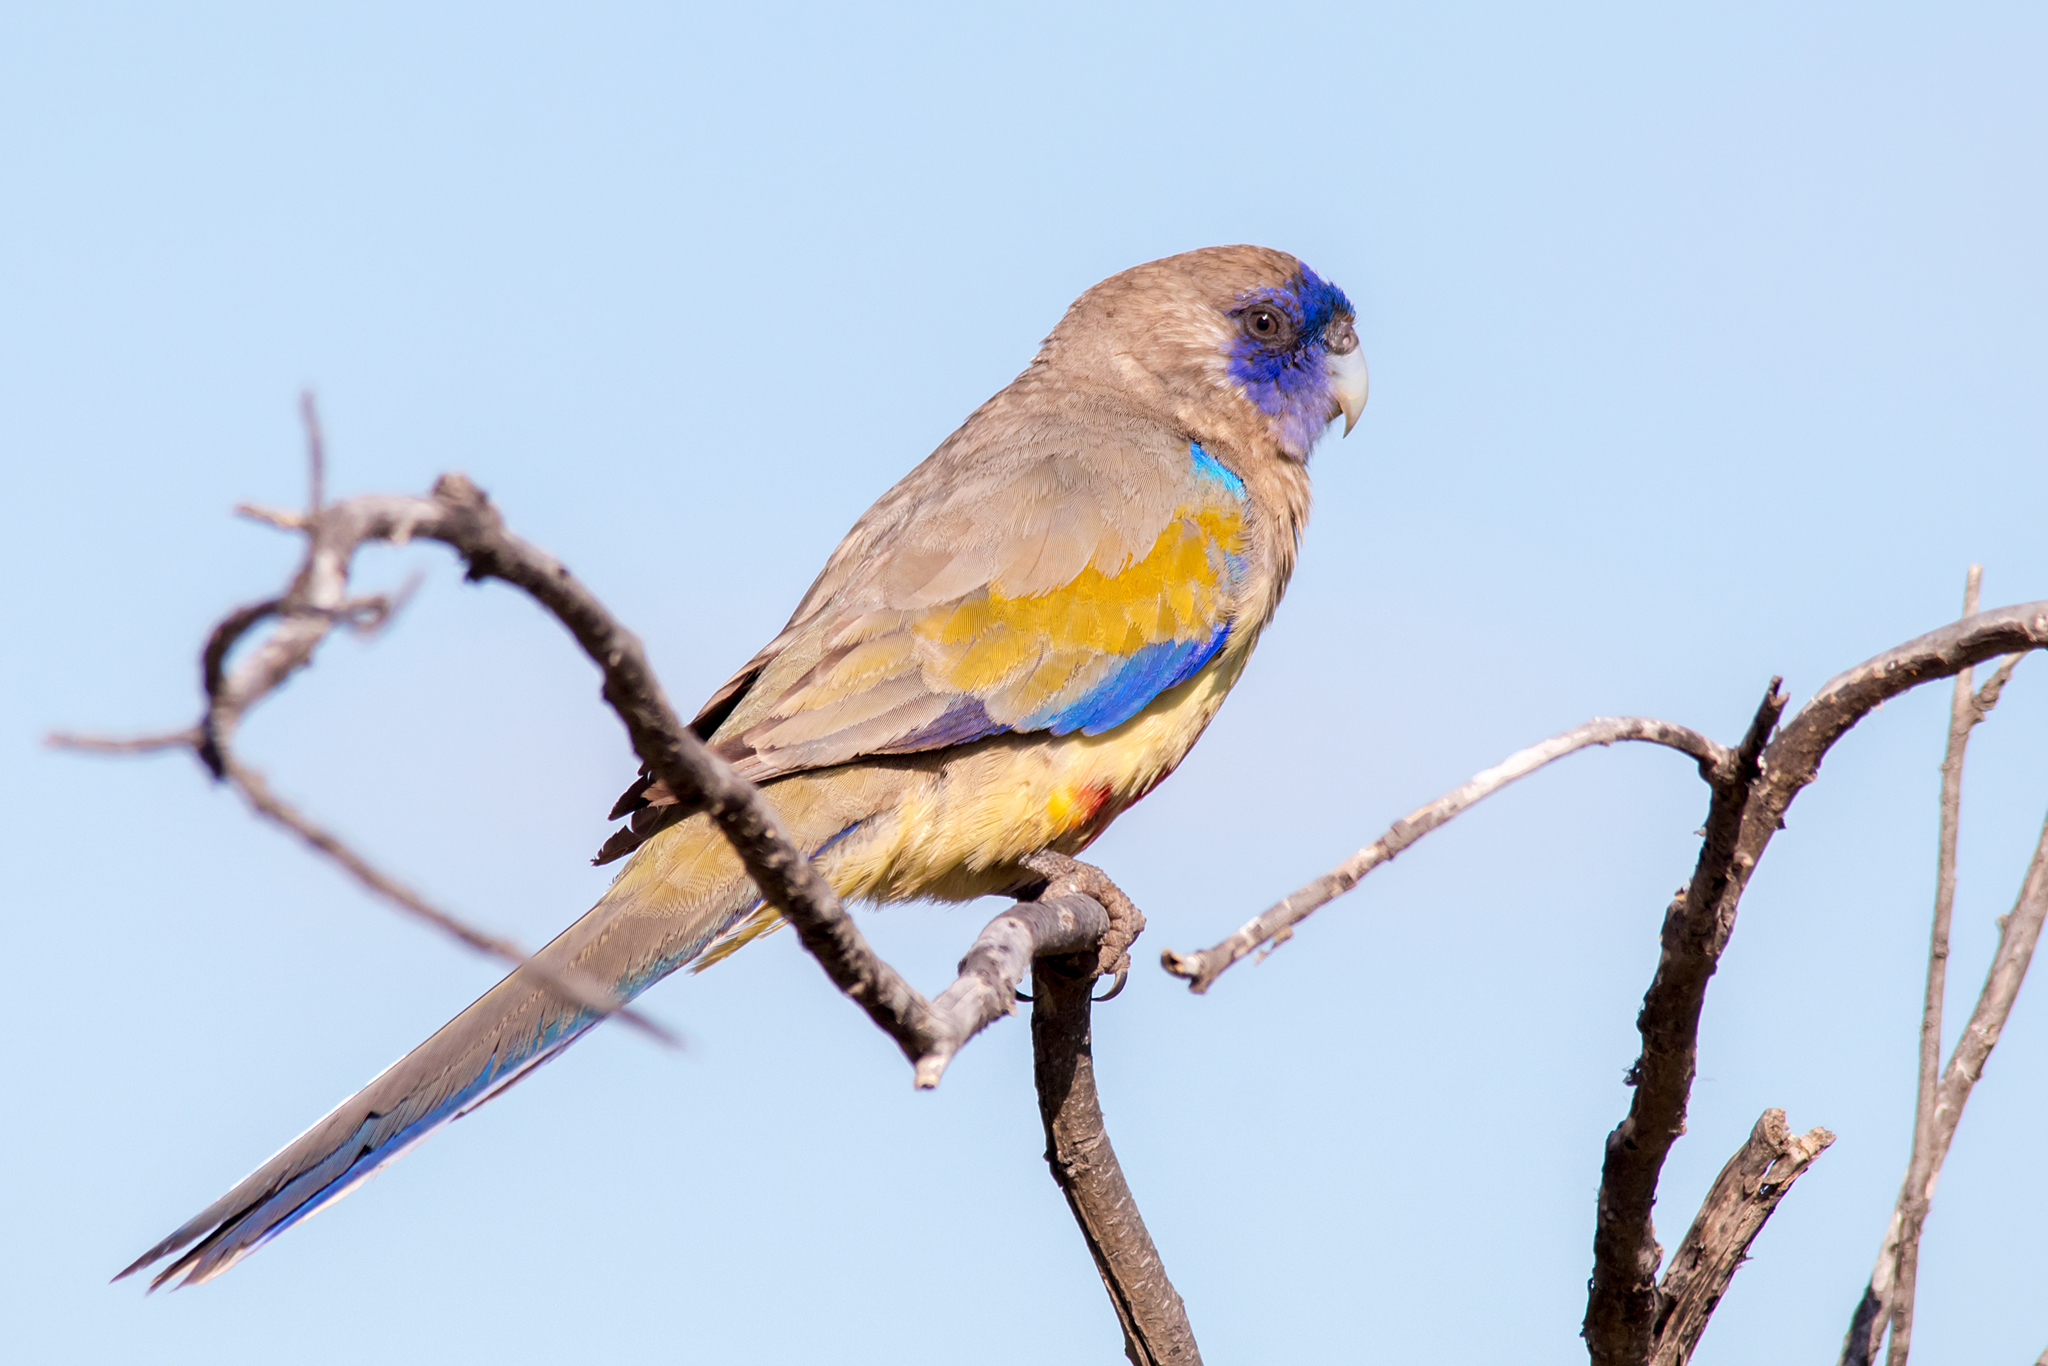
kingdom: Animalia
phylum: Chordata
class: Aves
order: Psittaciformes
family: Psittacidae
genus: Northiella
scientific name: Northiella haematogaster
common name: Bluebonnet
